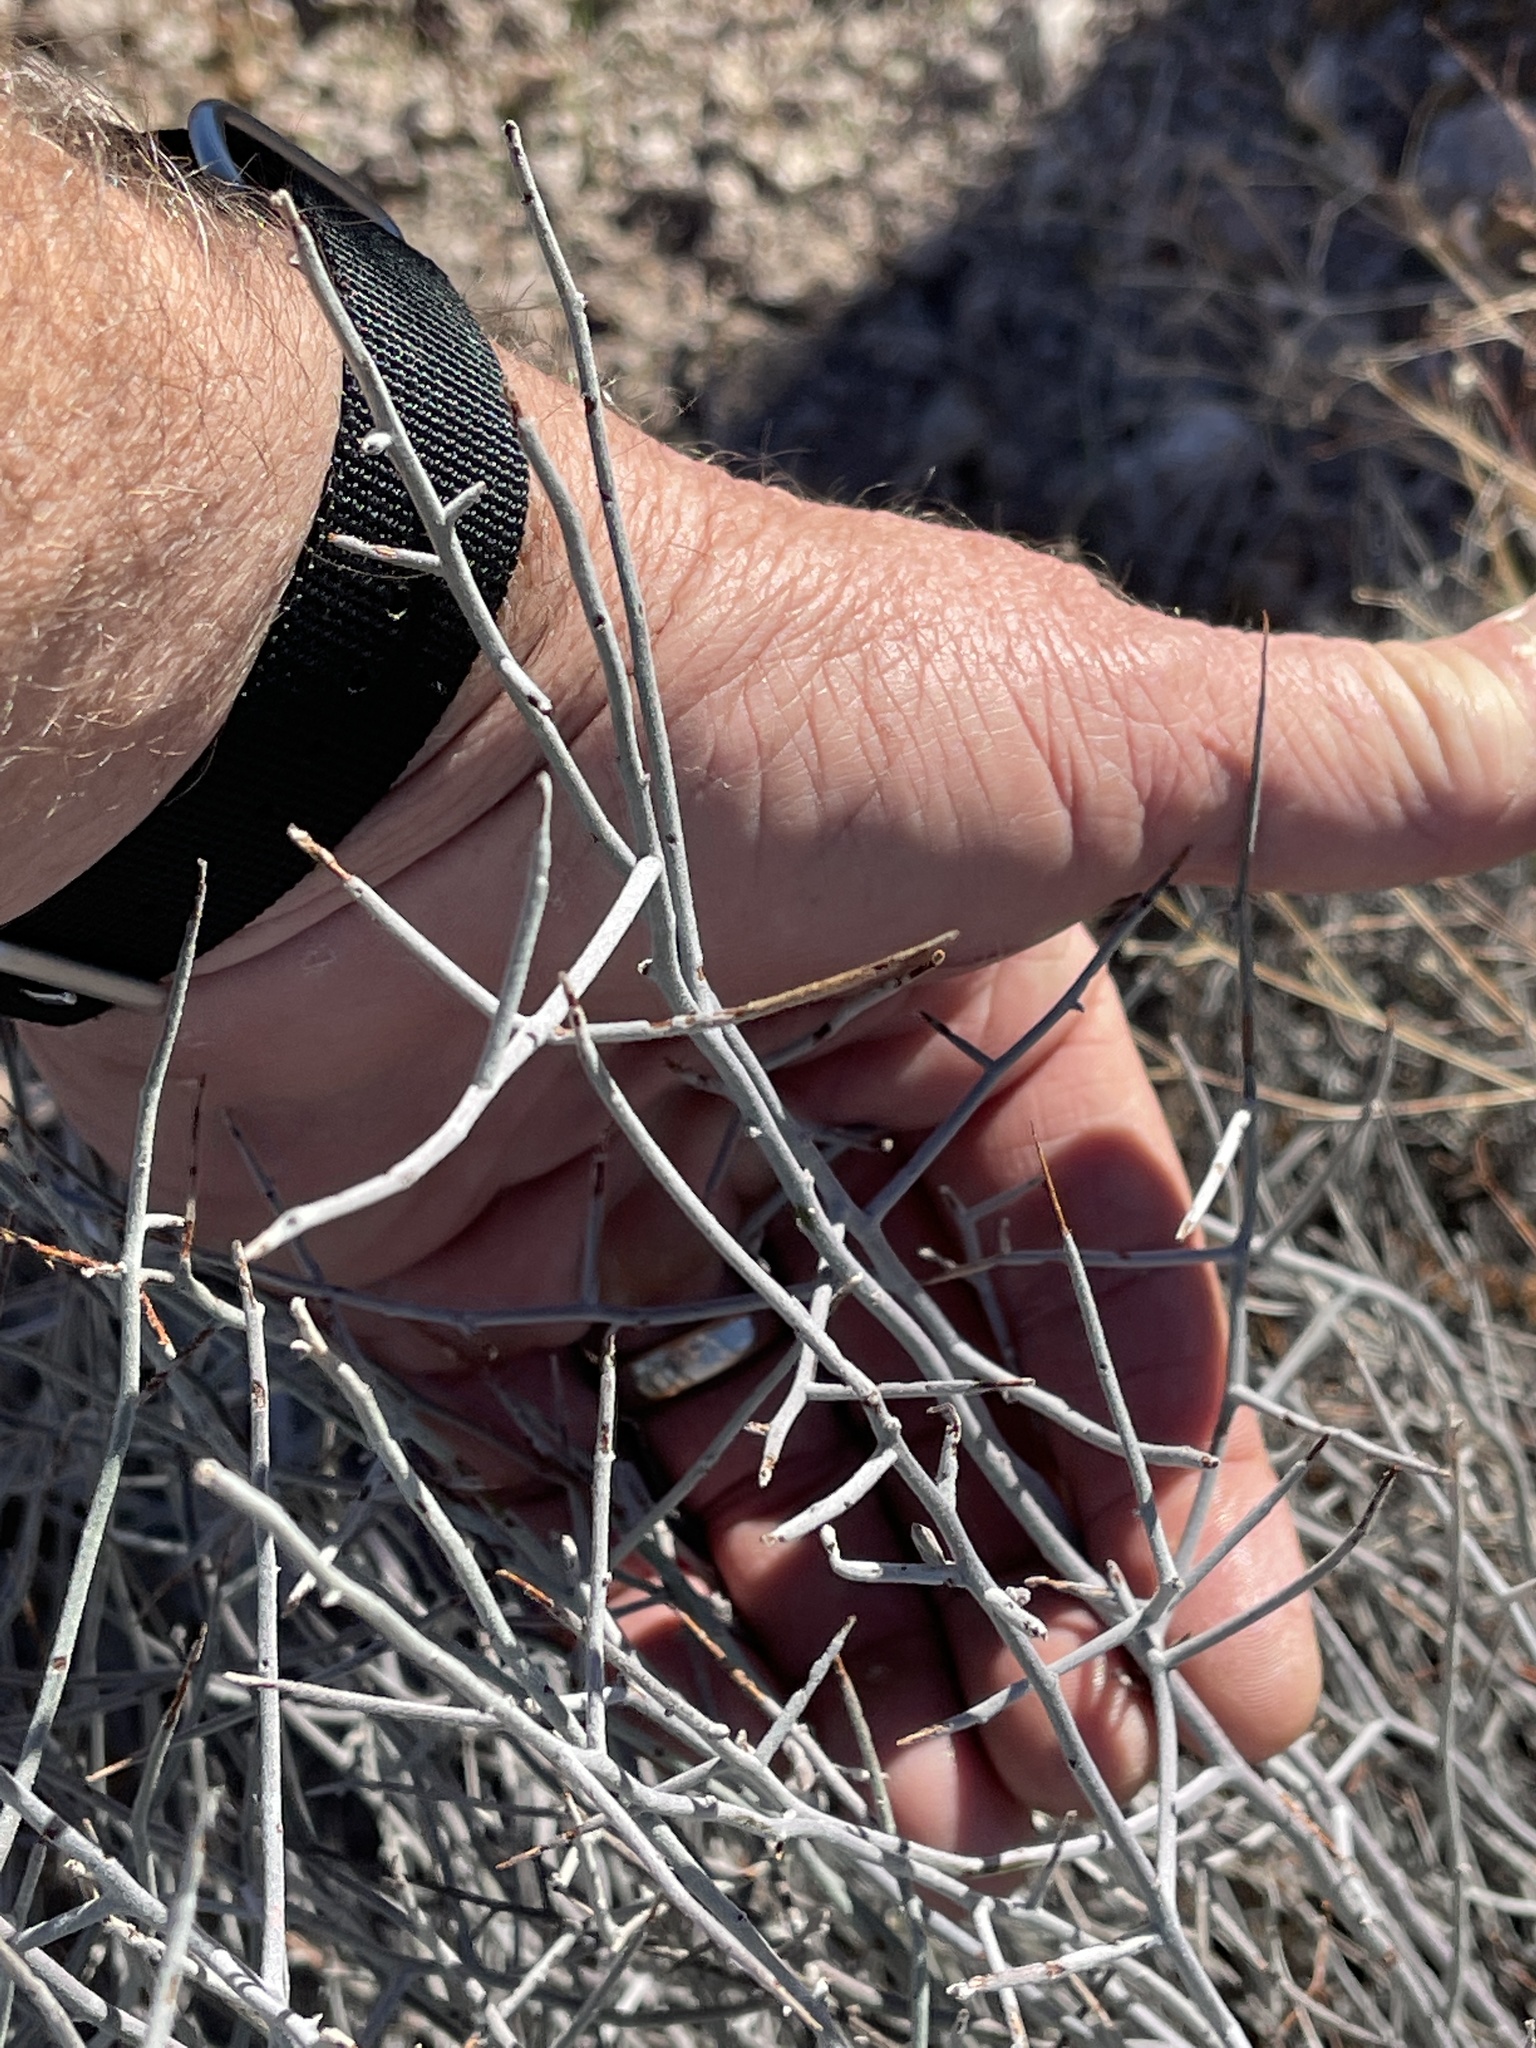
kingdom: Plantae
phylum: Tracheophyta
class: Magnoliopsida
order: Zygophyllales
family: Krameriaceae
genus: Krameria
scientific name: Krameria bicolor
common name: White ratany
